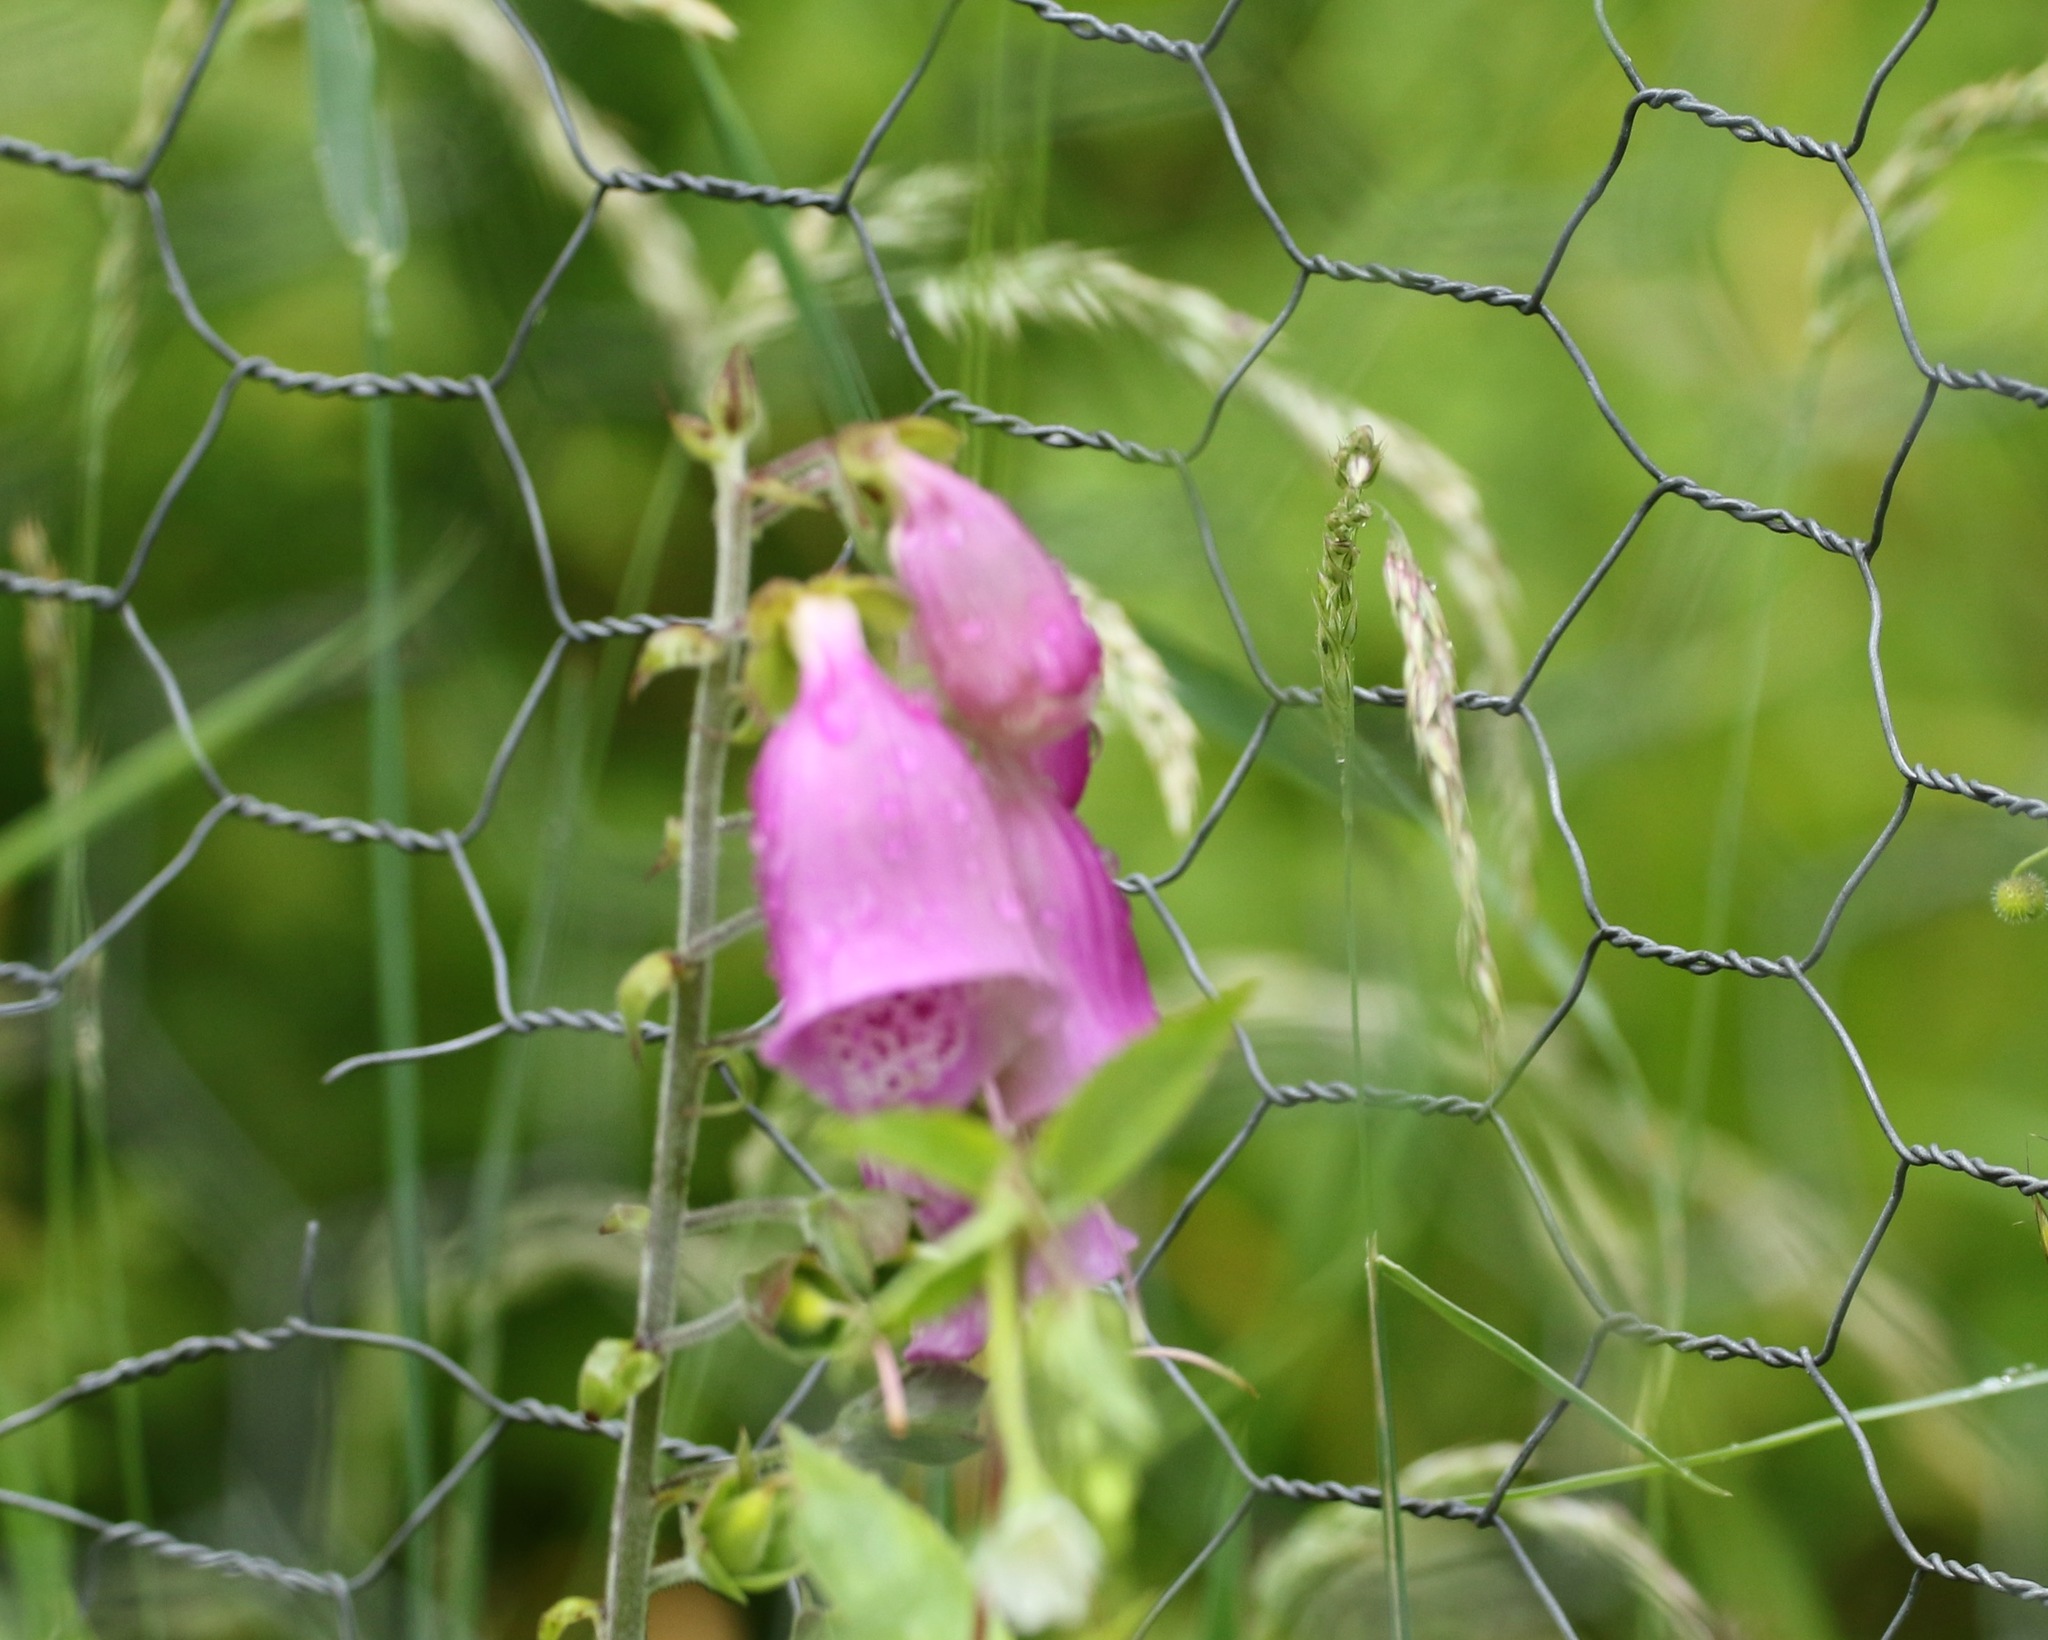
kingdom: Plantae
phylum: Tracheophyta
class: Magnoliopsida
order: Lamiales
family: Plantaginaceae
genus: Digitalis
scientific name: Digitalis purpurea
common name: Foxglove
